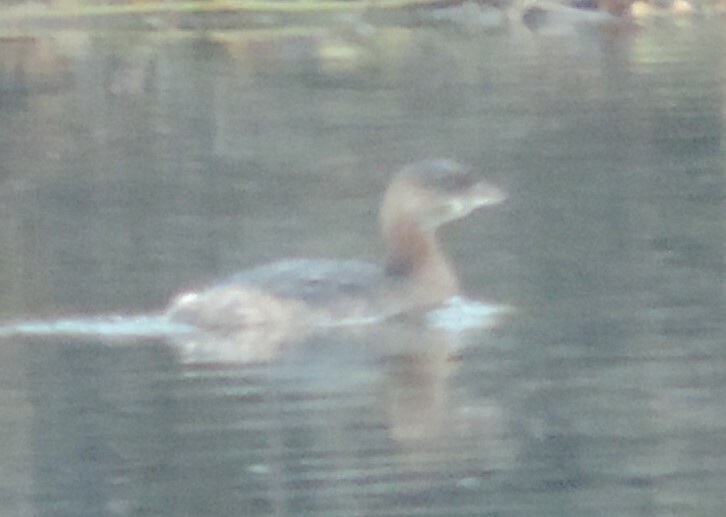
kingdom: Animalia
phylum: Chordata
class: Aves
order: Podicipediformes
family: Podicipedidae
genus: Podilymbus
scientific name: Podilymbus podiceps
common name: Pied-billed grebe
